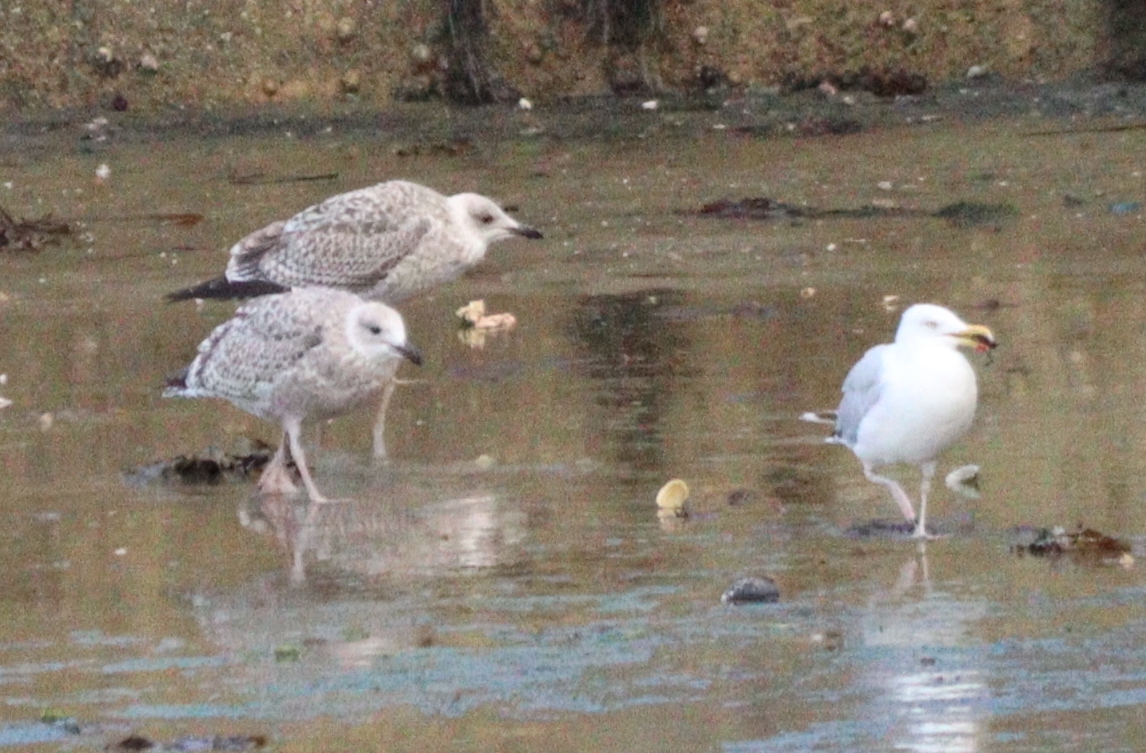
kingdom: Animalia
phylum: Chordata
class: Aves
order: Charadriiformes
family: Laridae
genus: Larus
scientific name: Larus argentatus
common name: Herring gull
